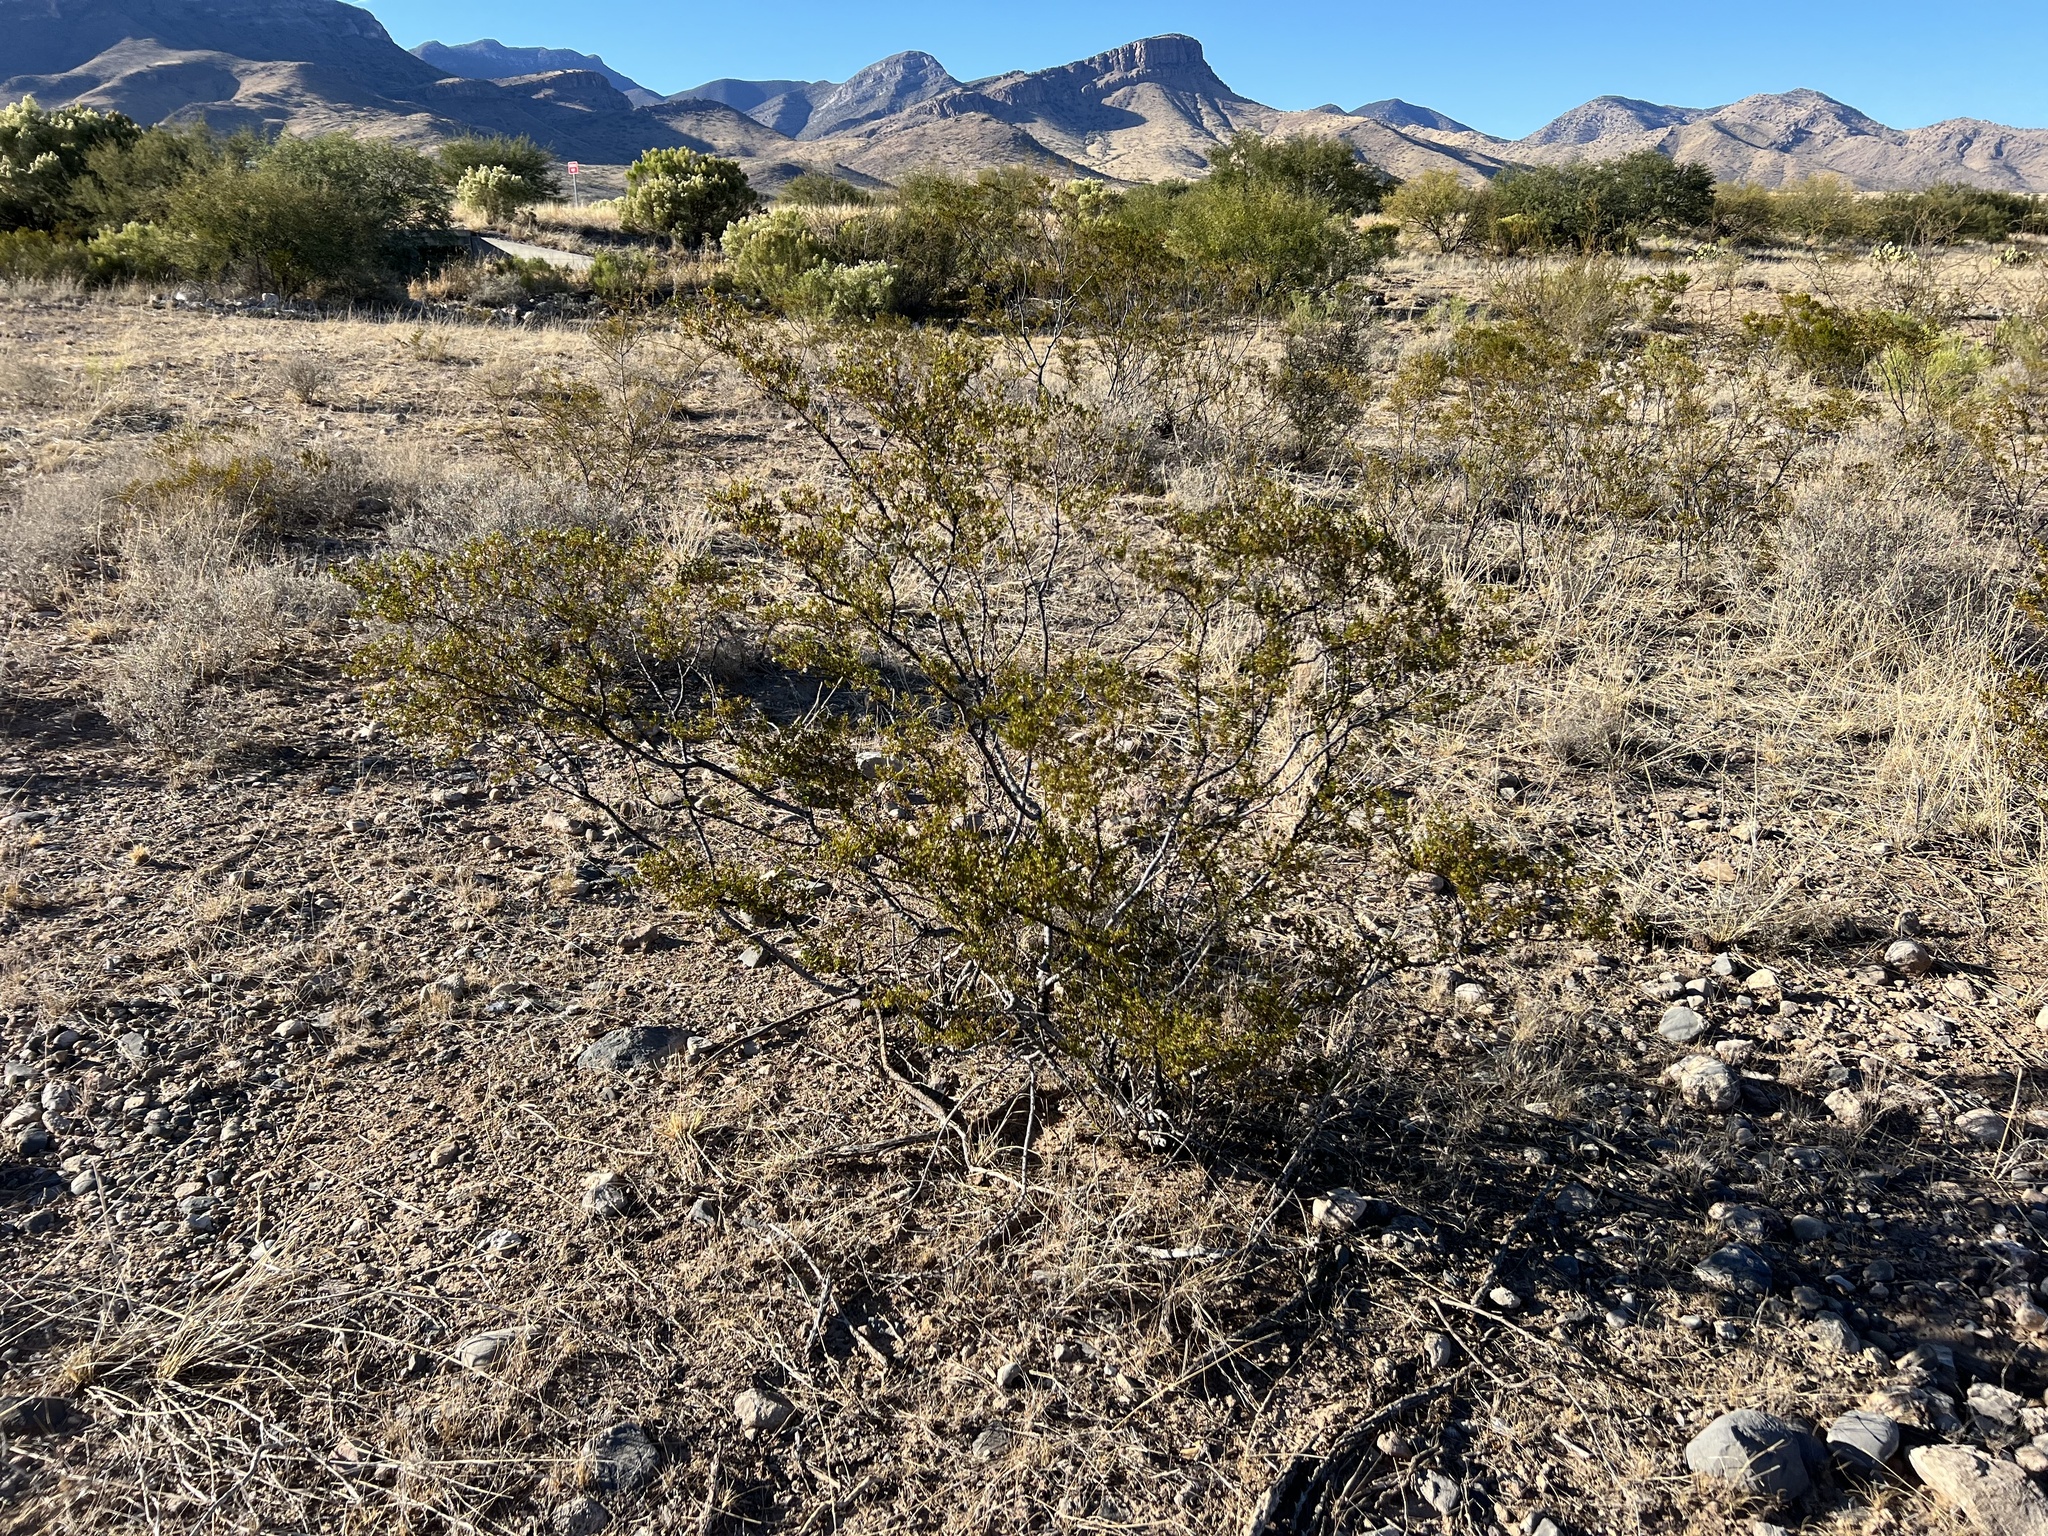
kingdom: Plantae
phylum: Tracheophyta
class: Magnoliopsida
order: Zygophyllales
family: Zygophyllaceae
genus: Larrea
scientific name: Larrea tridentata
